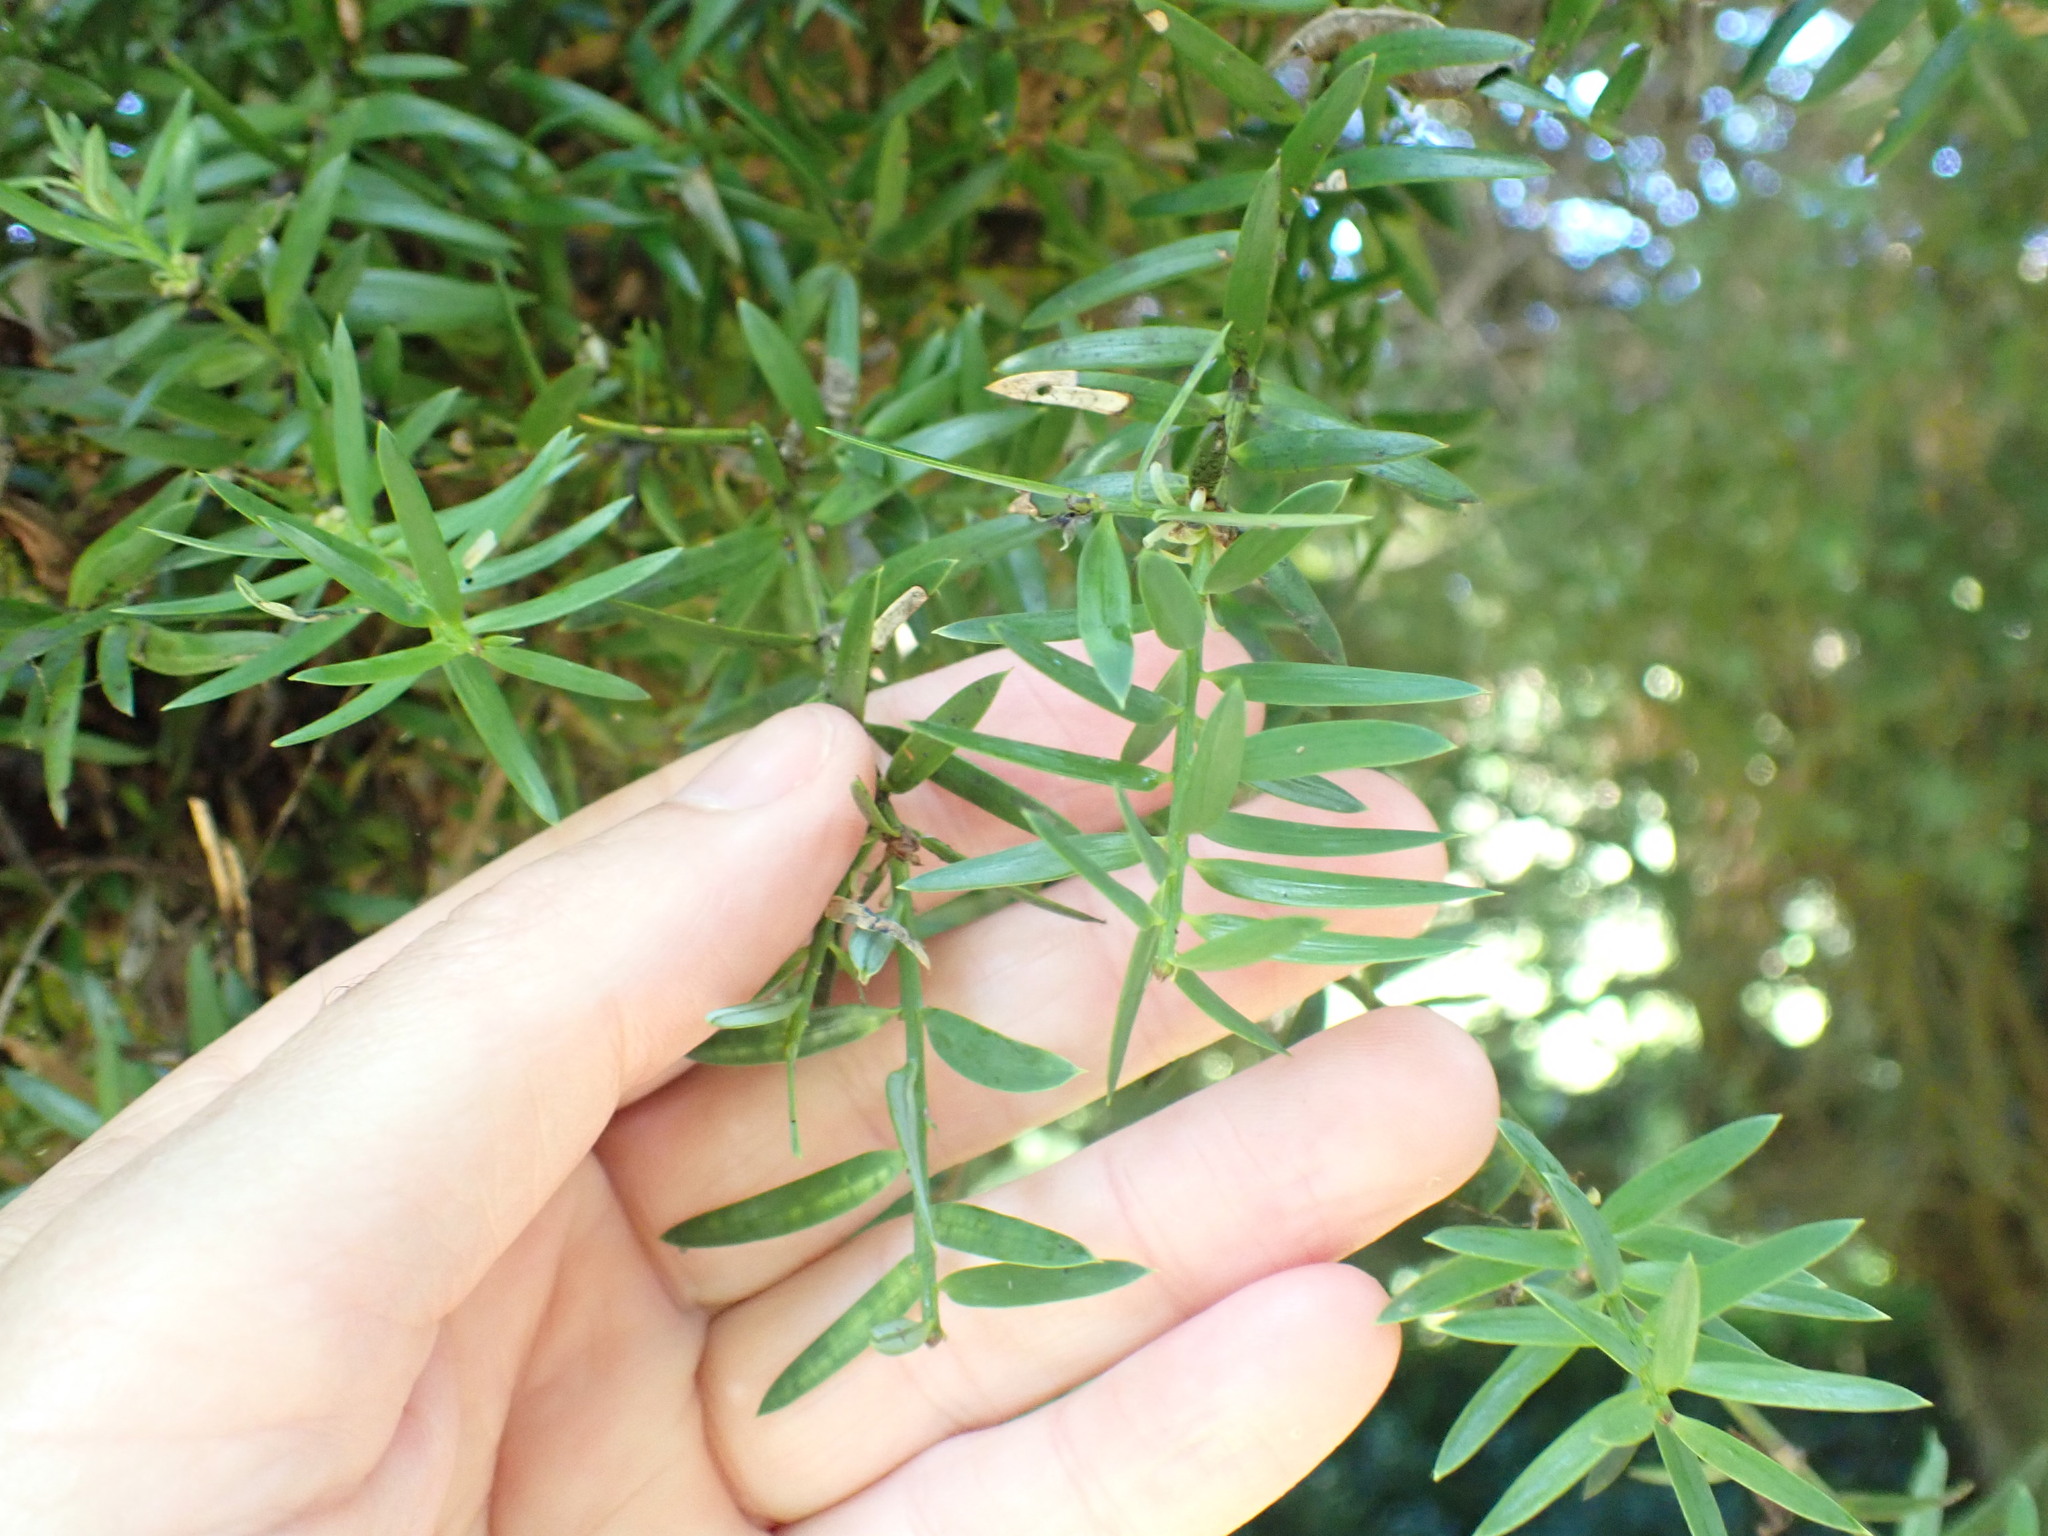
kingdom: Plantae
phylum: Tracheophyta
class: Pinopsida
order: Pinales
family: Podocarpaceae
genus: Podocarpus
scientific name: Podocarpus totara
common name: Totara
